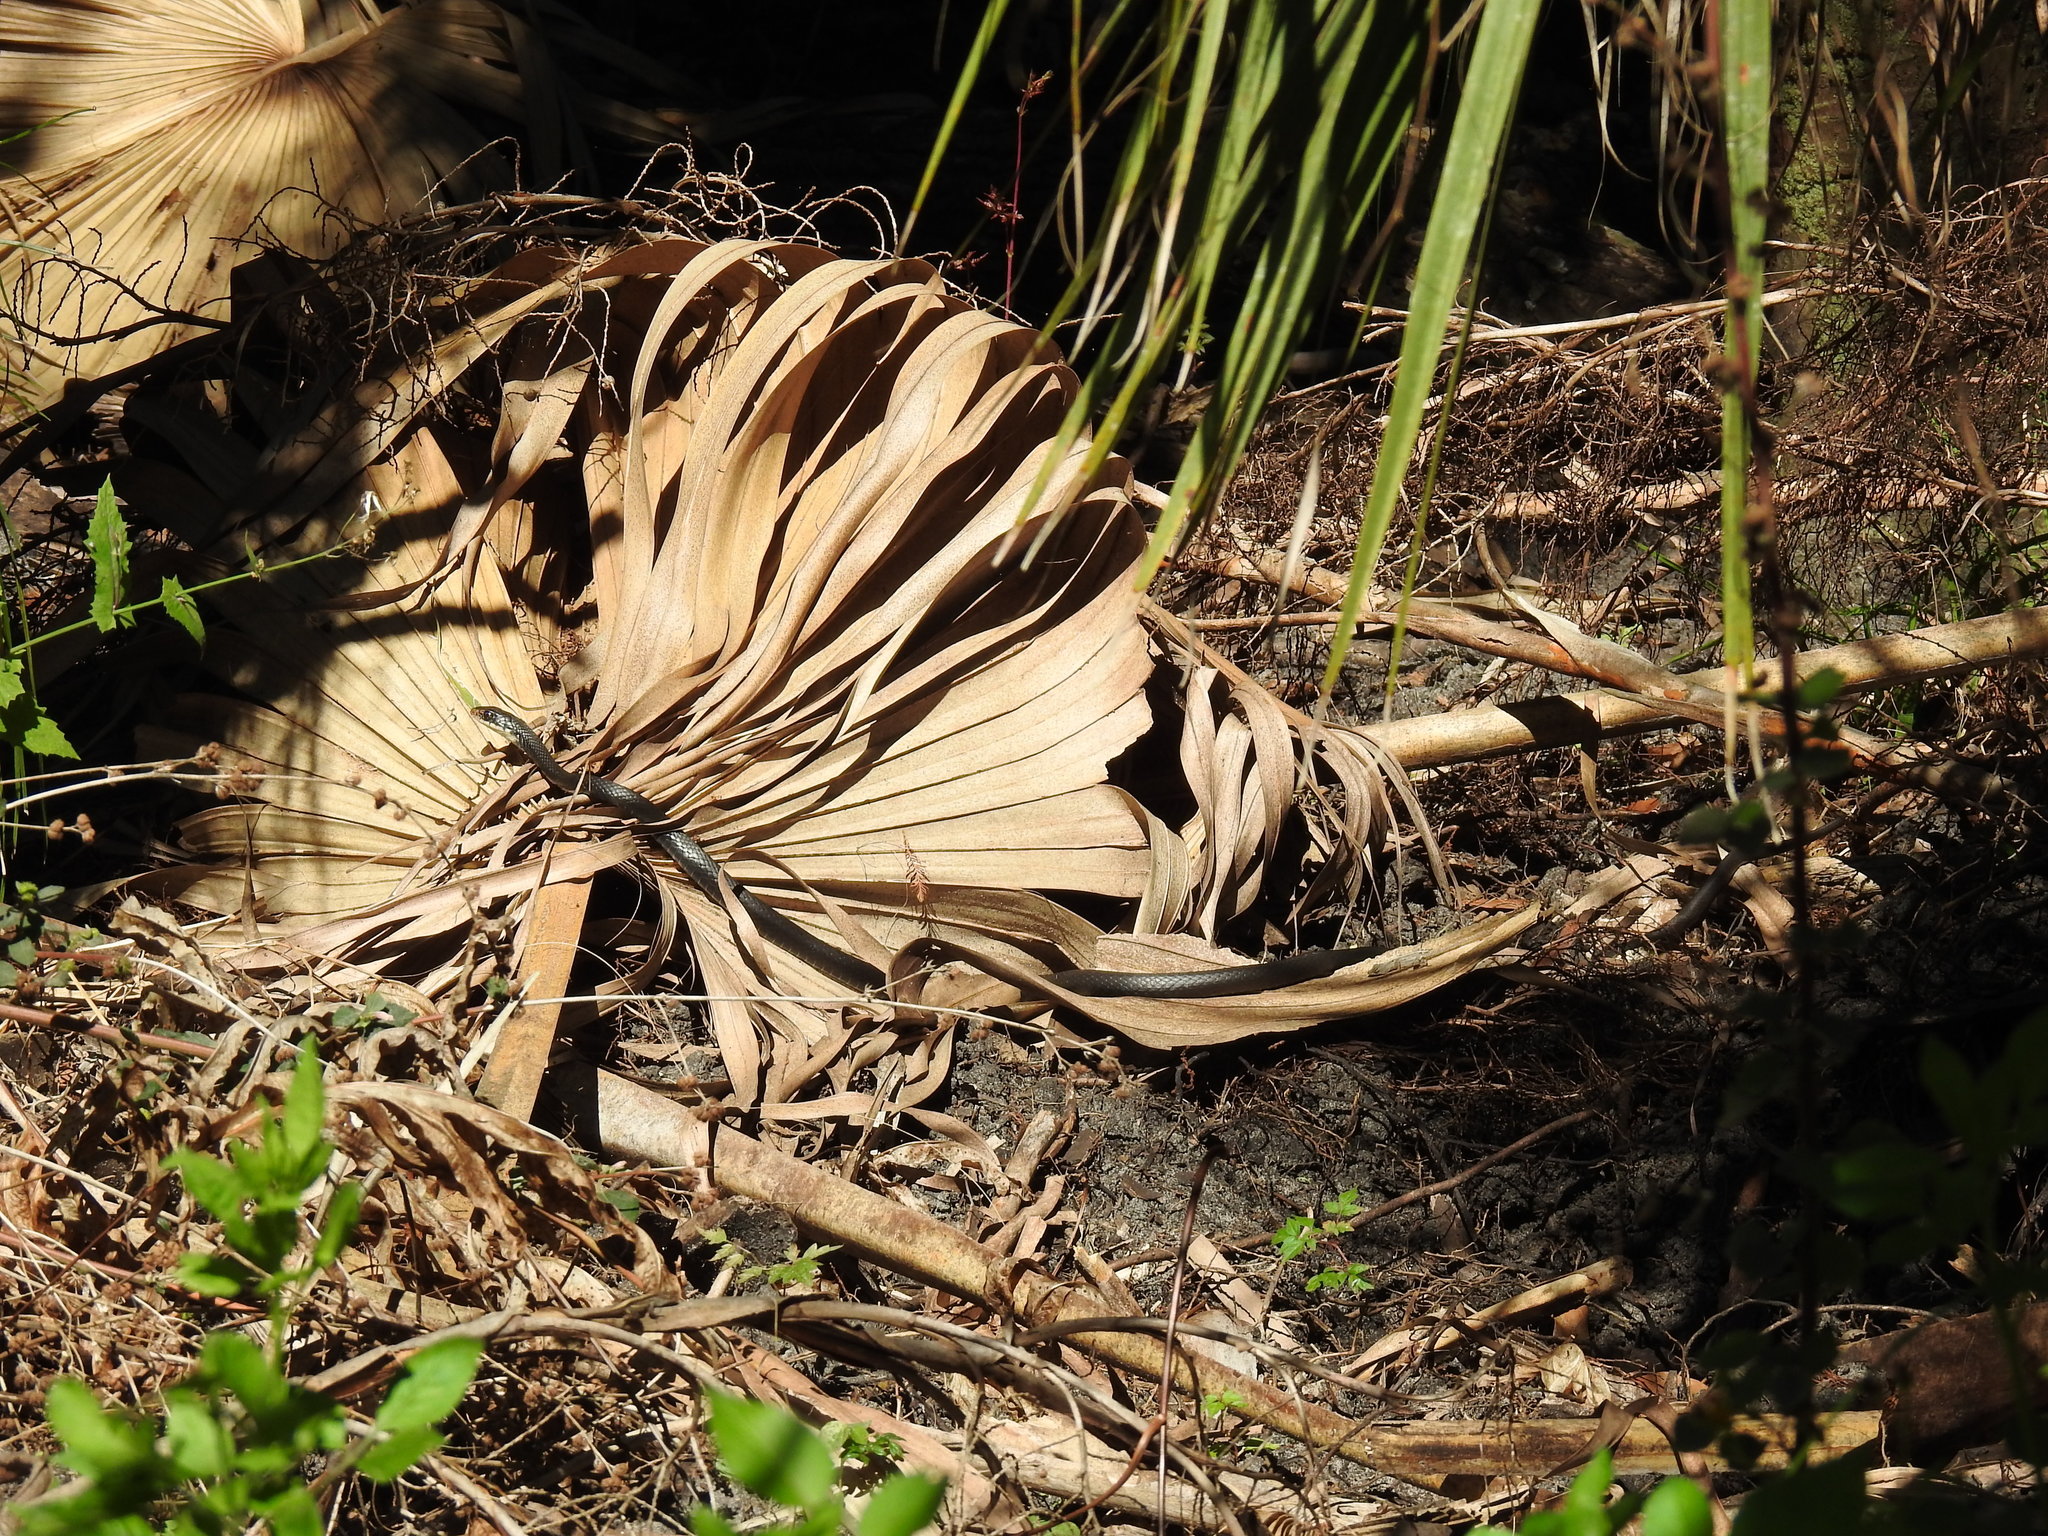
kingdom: Animalia
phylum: Chordata
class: Squamata
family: Colubridae
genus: Coluber
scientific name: Coluber constrictor
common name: Eastern racer
